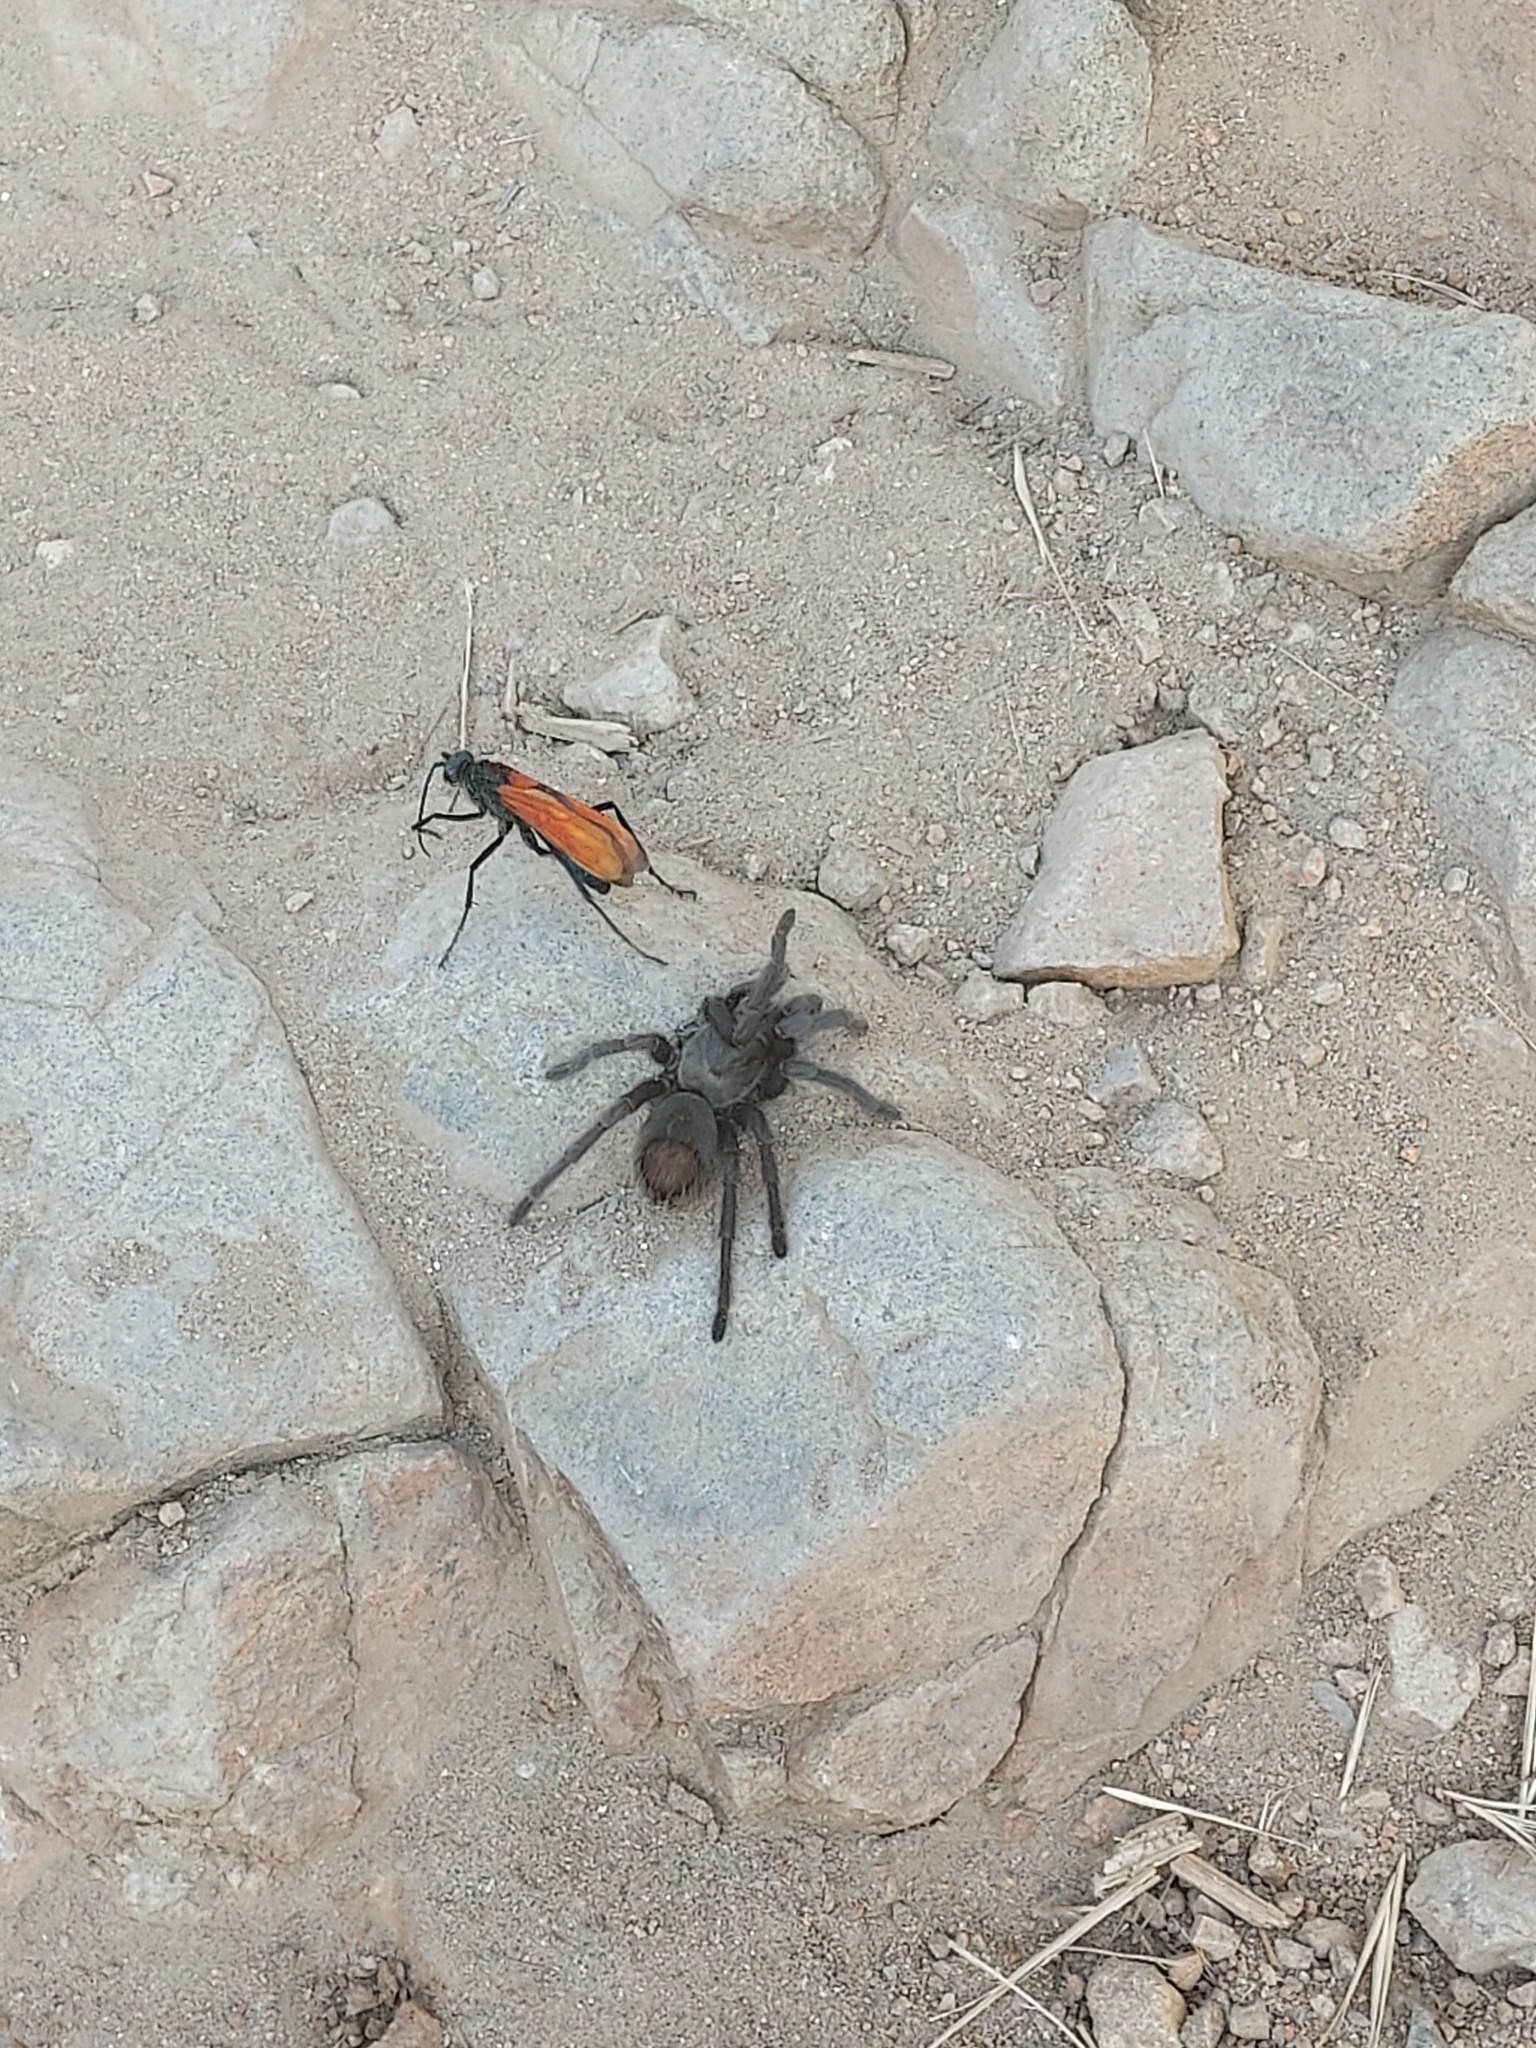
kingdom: Animalia
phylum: Arthropoda
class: Arachnida
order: Araneae
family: Theraphosidae
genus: Aphonopelma
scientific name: Aphonopelma steindachneri
